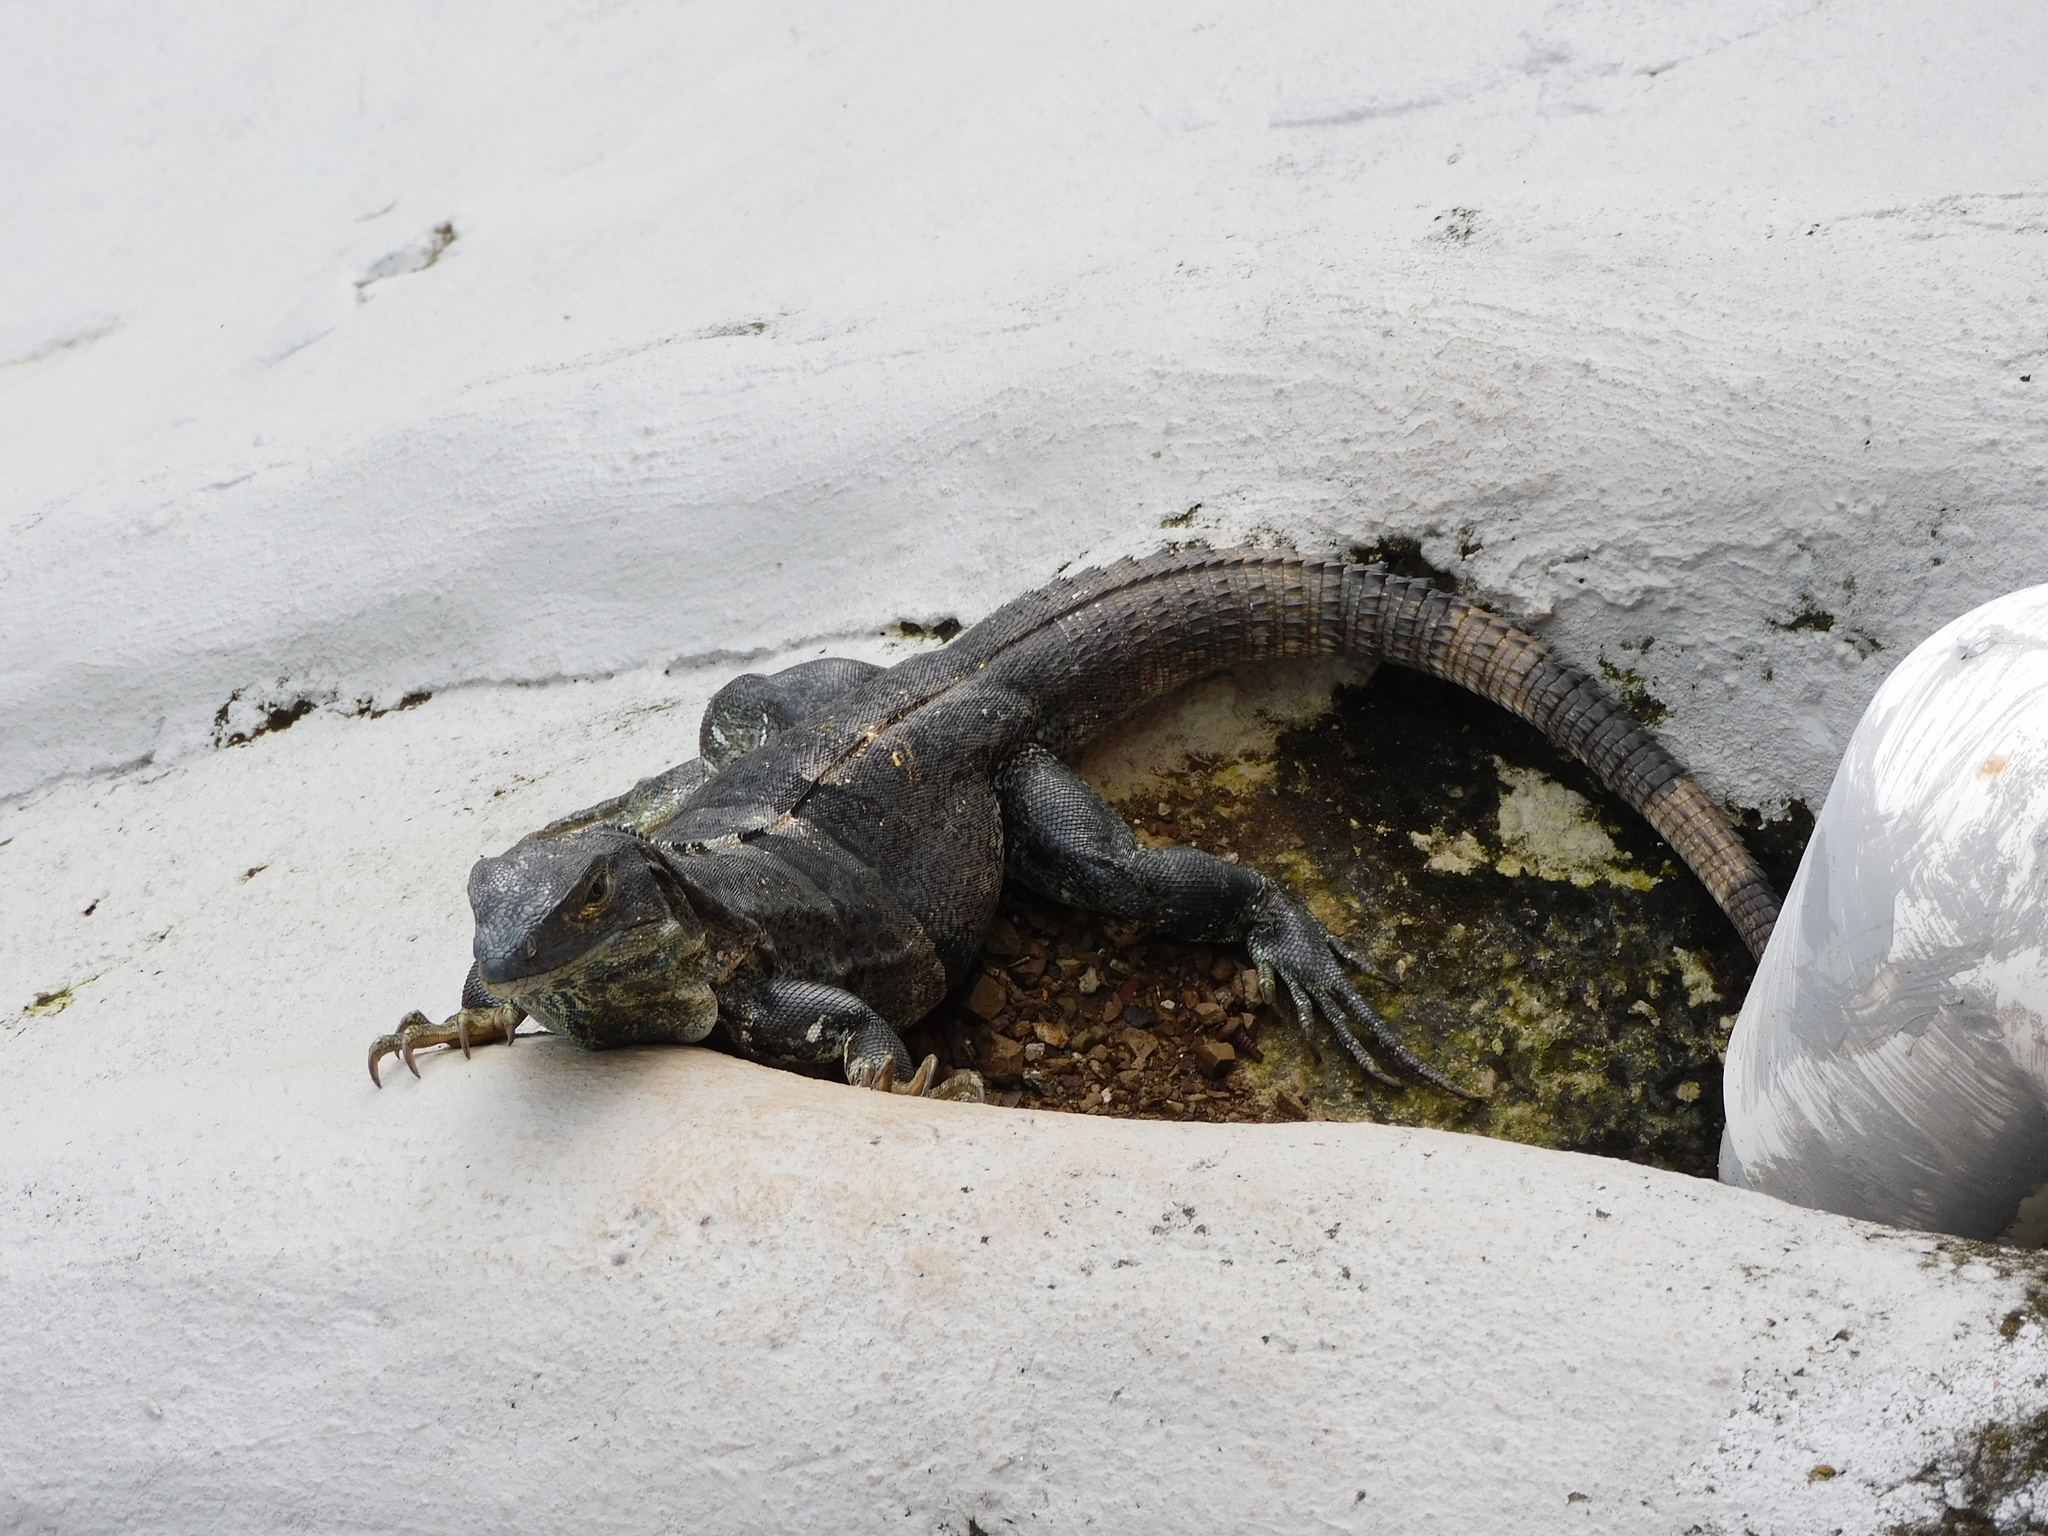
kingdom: Animalia
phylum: Chordata
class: Squamata
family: Iguanidae
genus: Ctenosaura
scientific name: Ctenosaura similis
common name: Black spiny-tailed iguana
